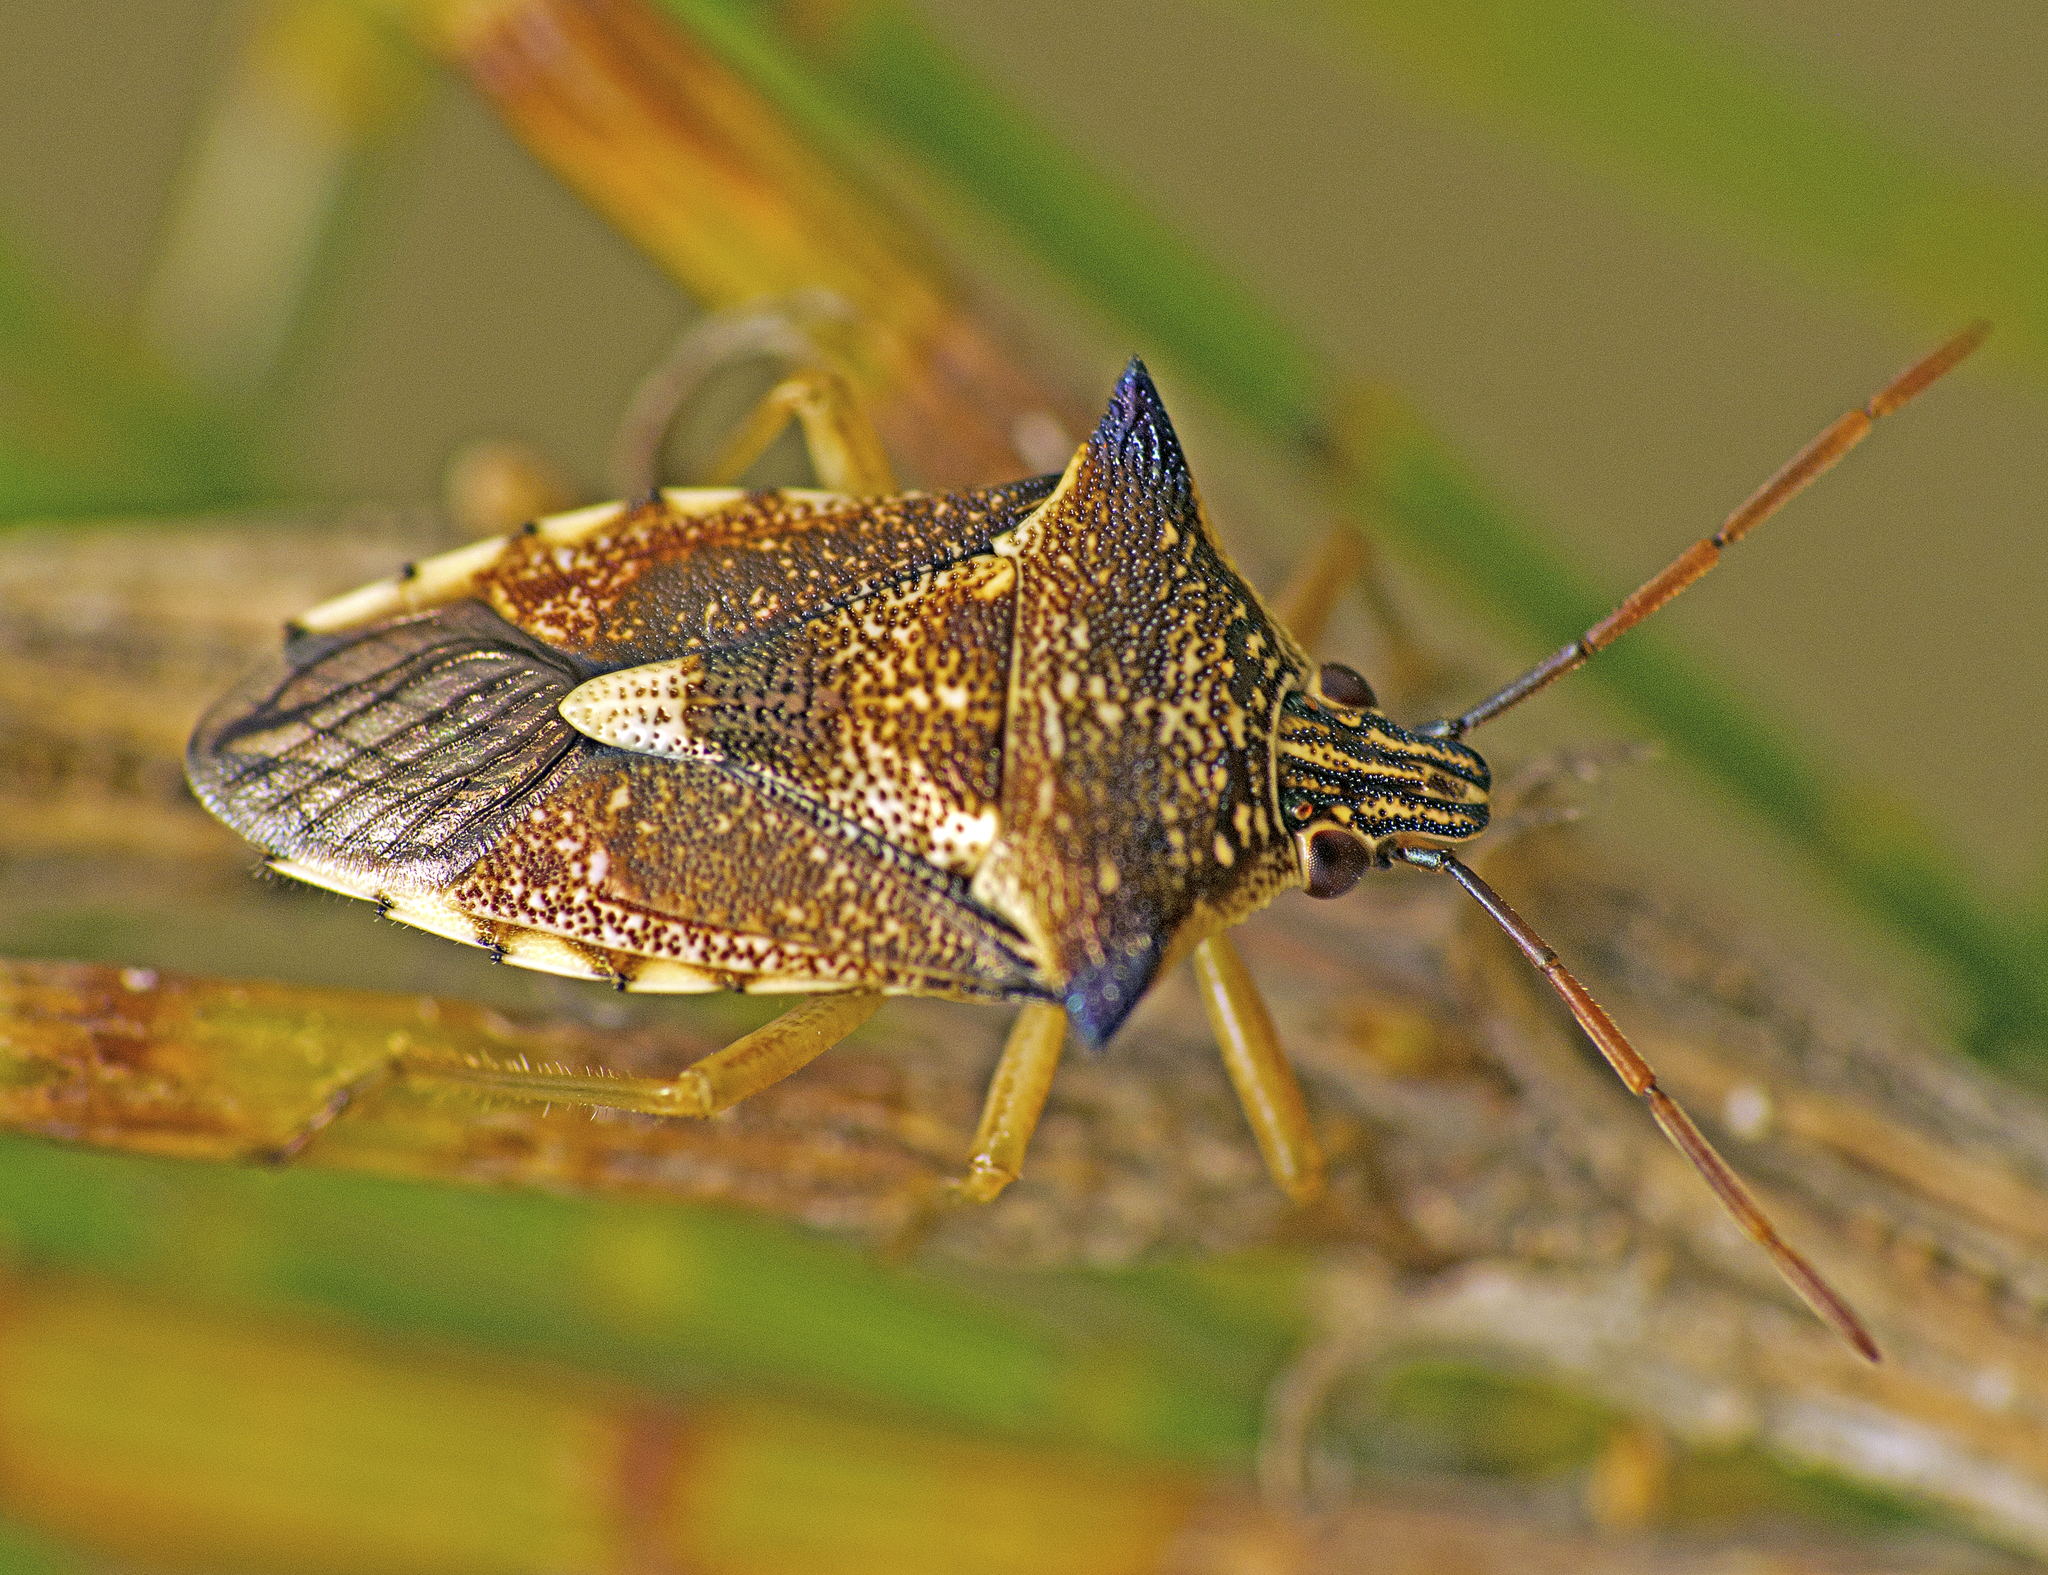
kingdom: Animalia
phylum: Arthropoda
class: Insecta
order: Hemiptera
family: Pentatomidae
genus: Oechalia
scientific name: Oechalia schellenbergii
